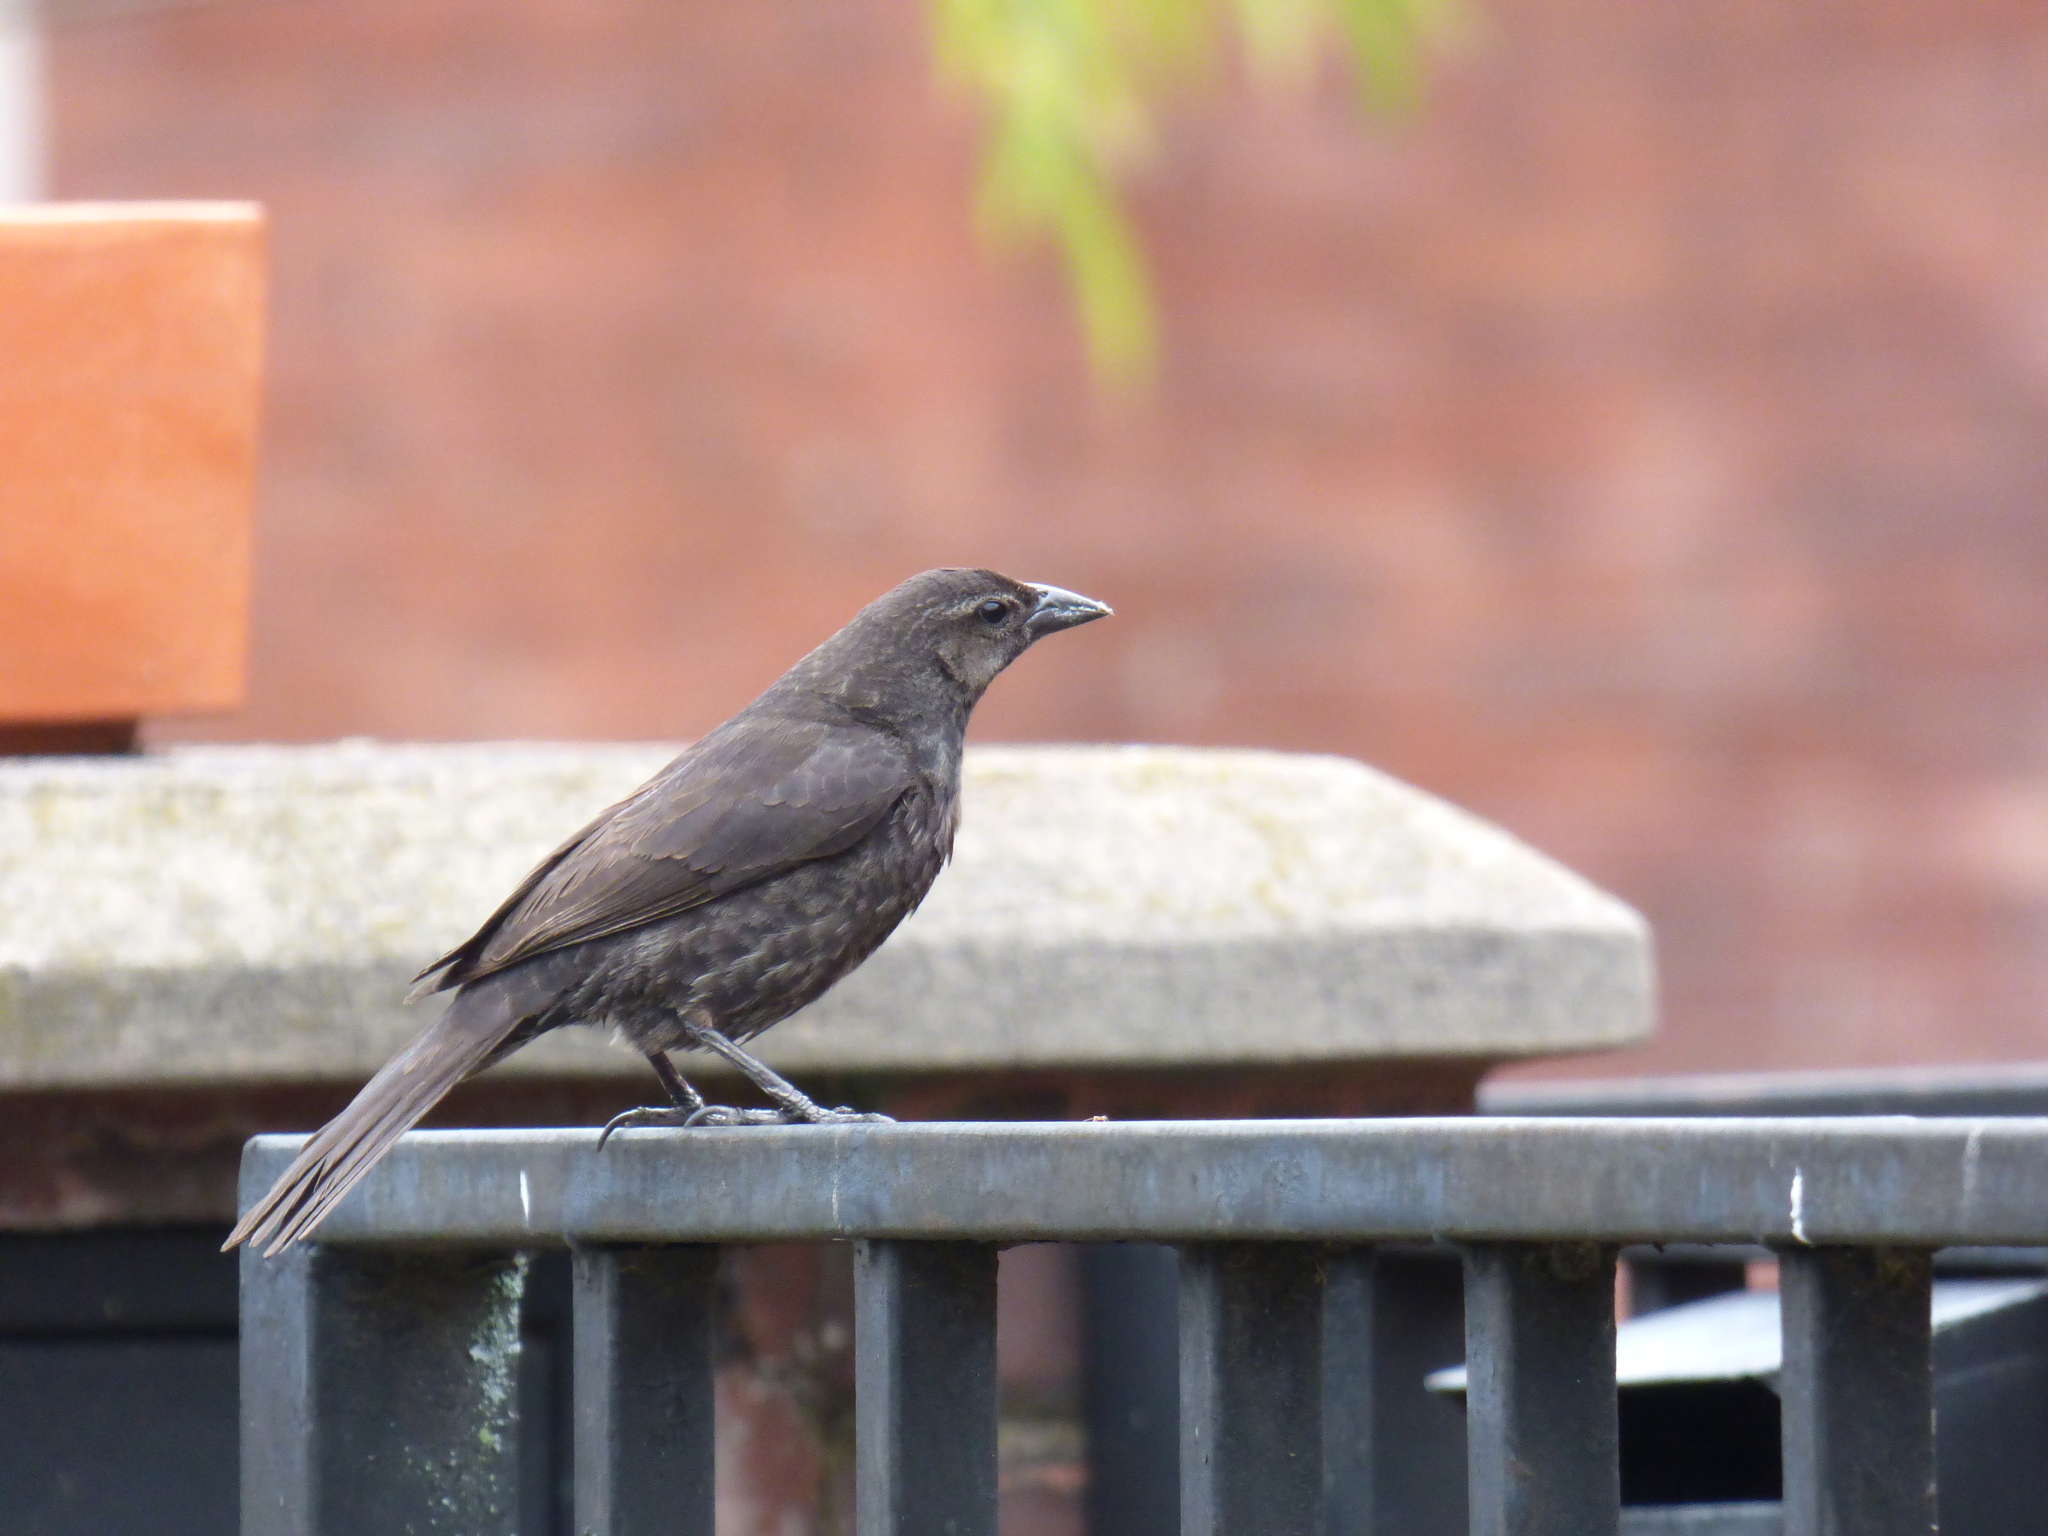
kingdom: Animalia
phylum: Chordata
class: Aves
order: Passeriformes
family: Icteridae
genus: Molothrus
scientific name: Molothrus bonariensis
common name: Shiny cowbird
